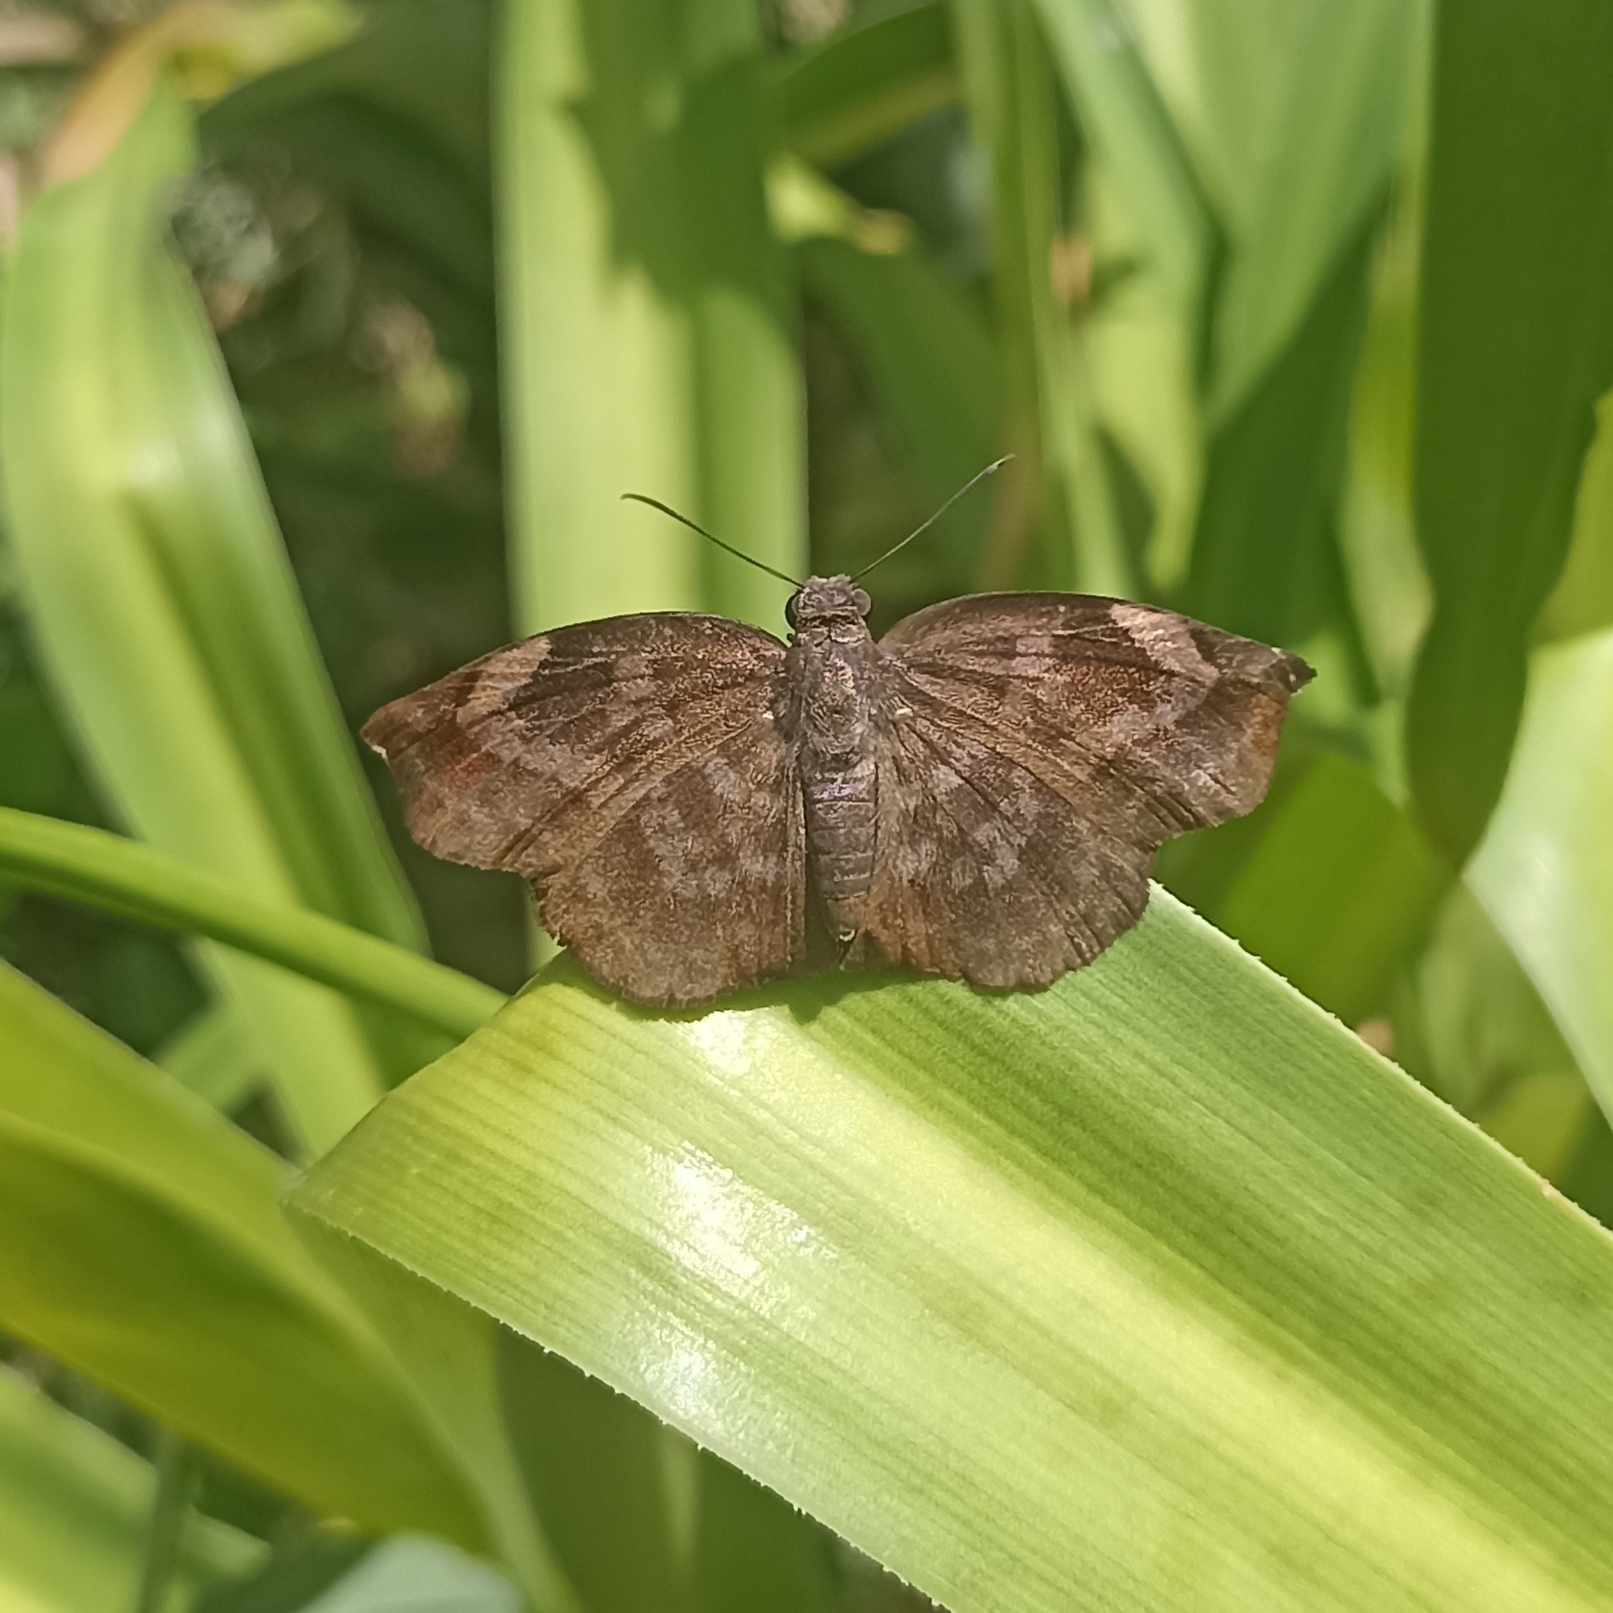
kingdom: Animalia
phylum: Arthropoda
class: Insecta
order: Lepidoptera
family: Hesperiidae
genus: Achlyodes
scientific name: Achlyodes thraso
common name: Sickle-winged skipper
